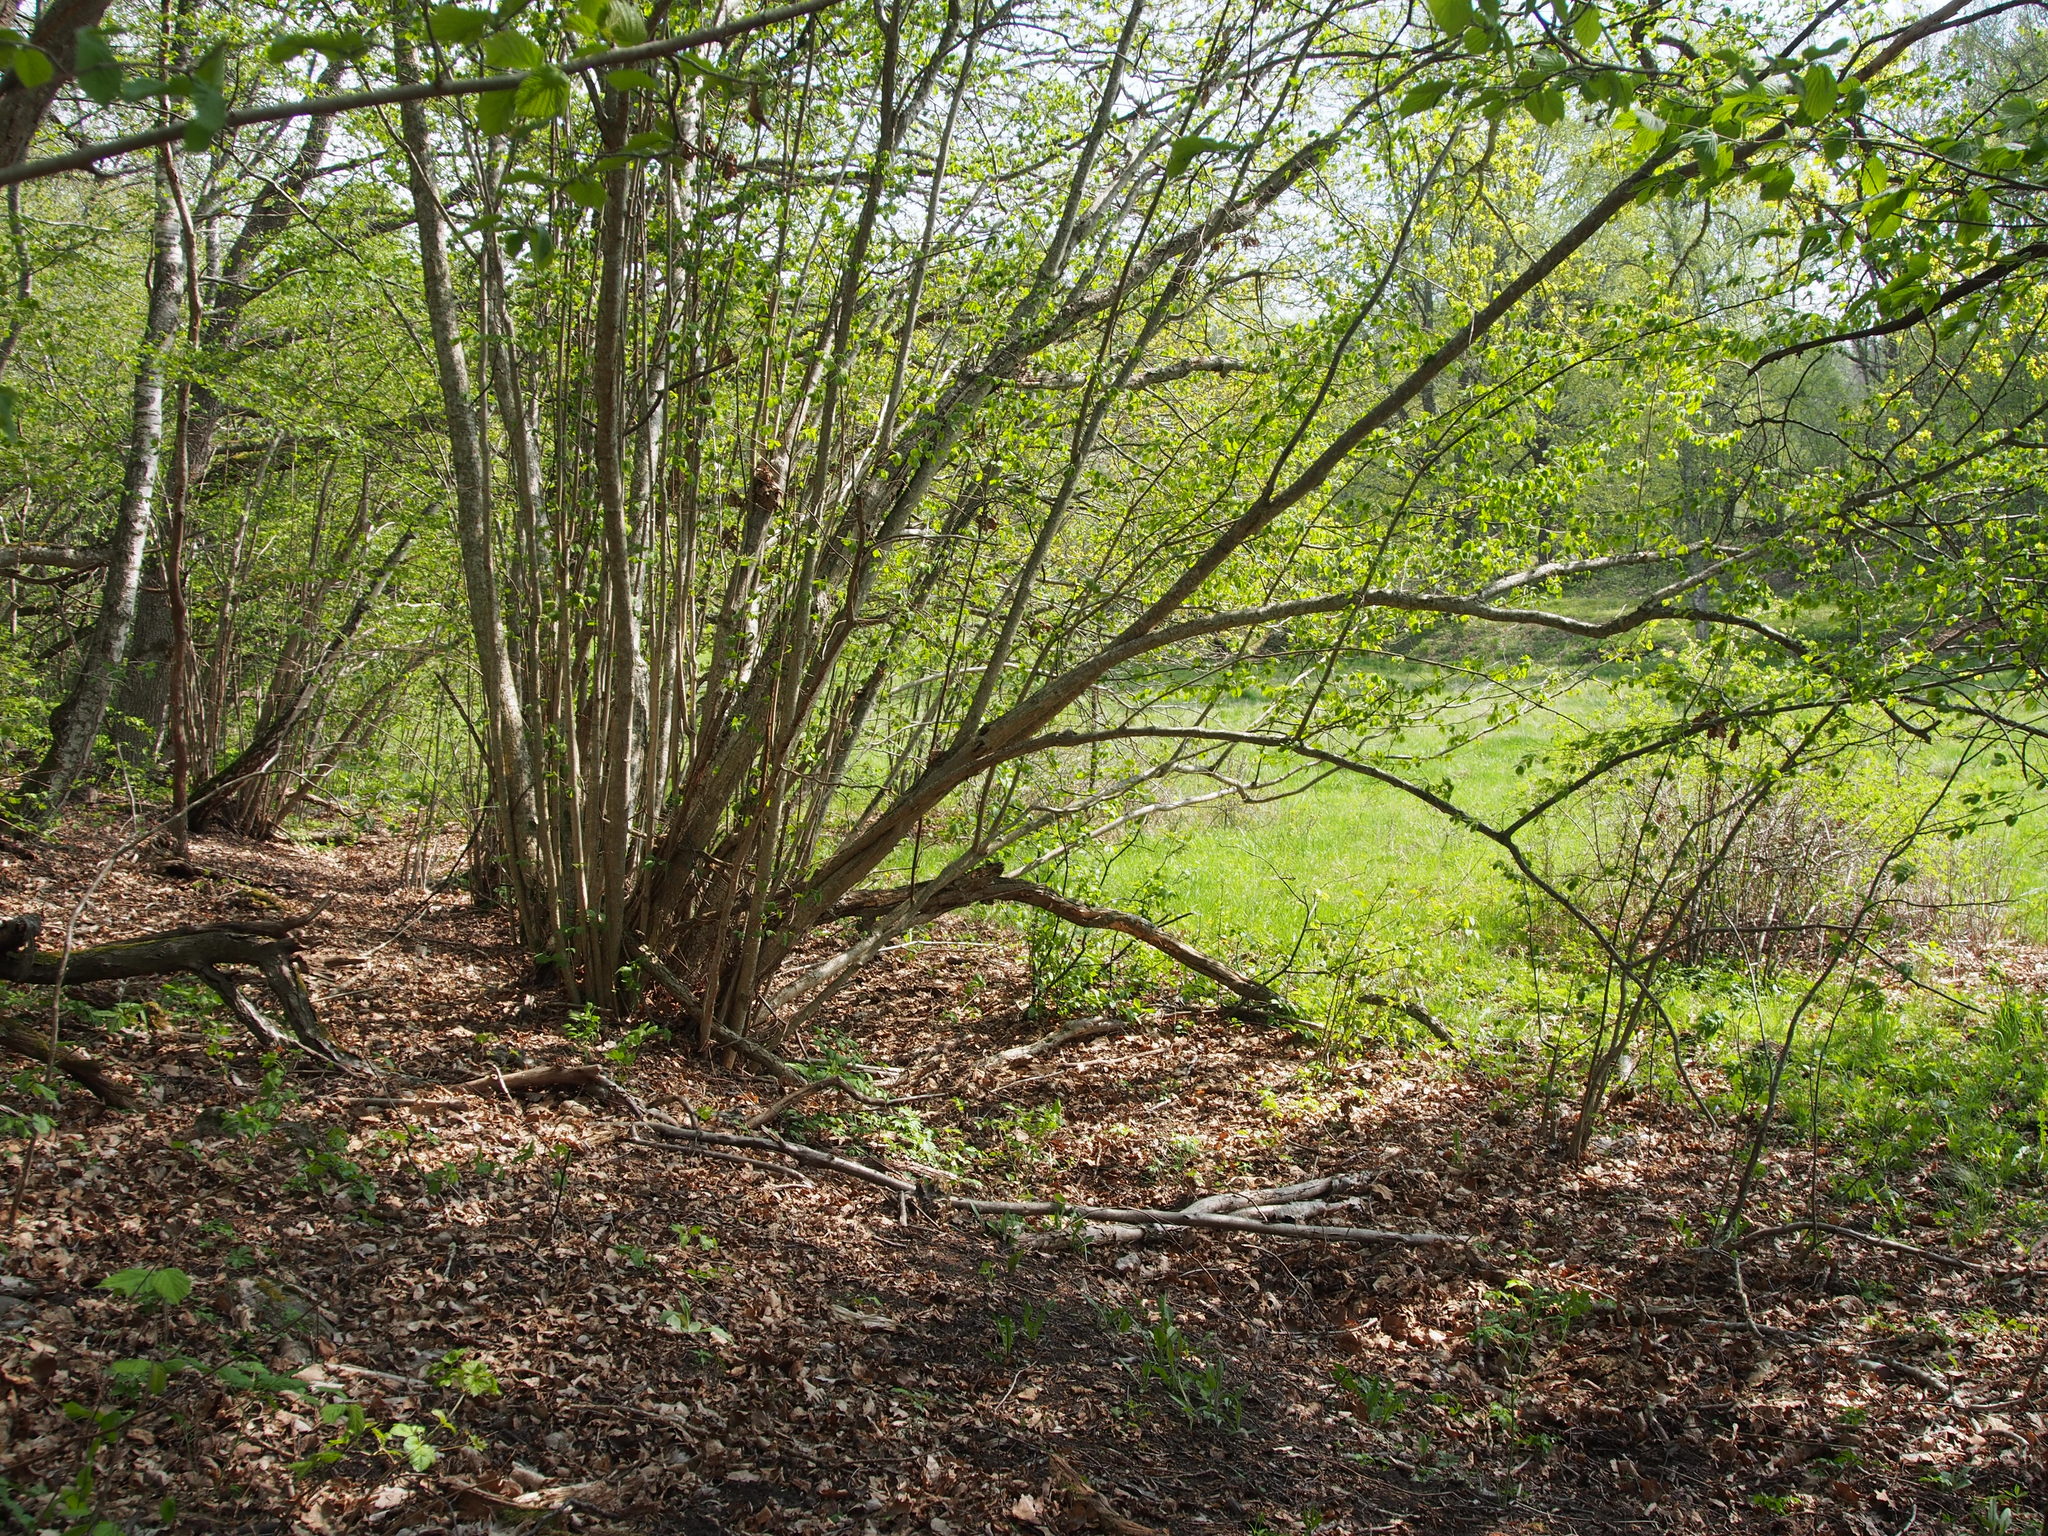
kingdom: Plantae
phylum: Tracheophyta
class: Magnoliopsida
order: Fagales
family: Betulaceae
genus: Corylus
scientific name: Corylus avellana
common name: European hazel
